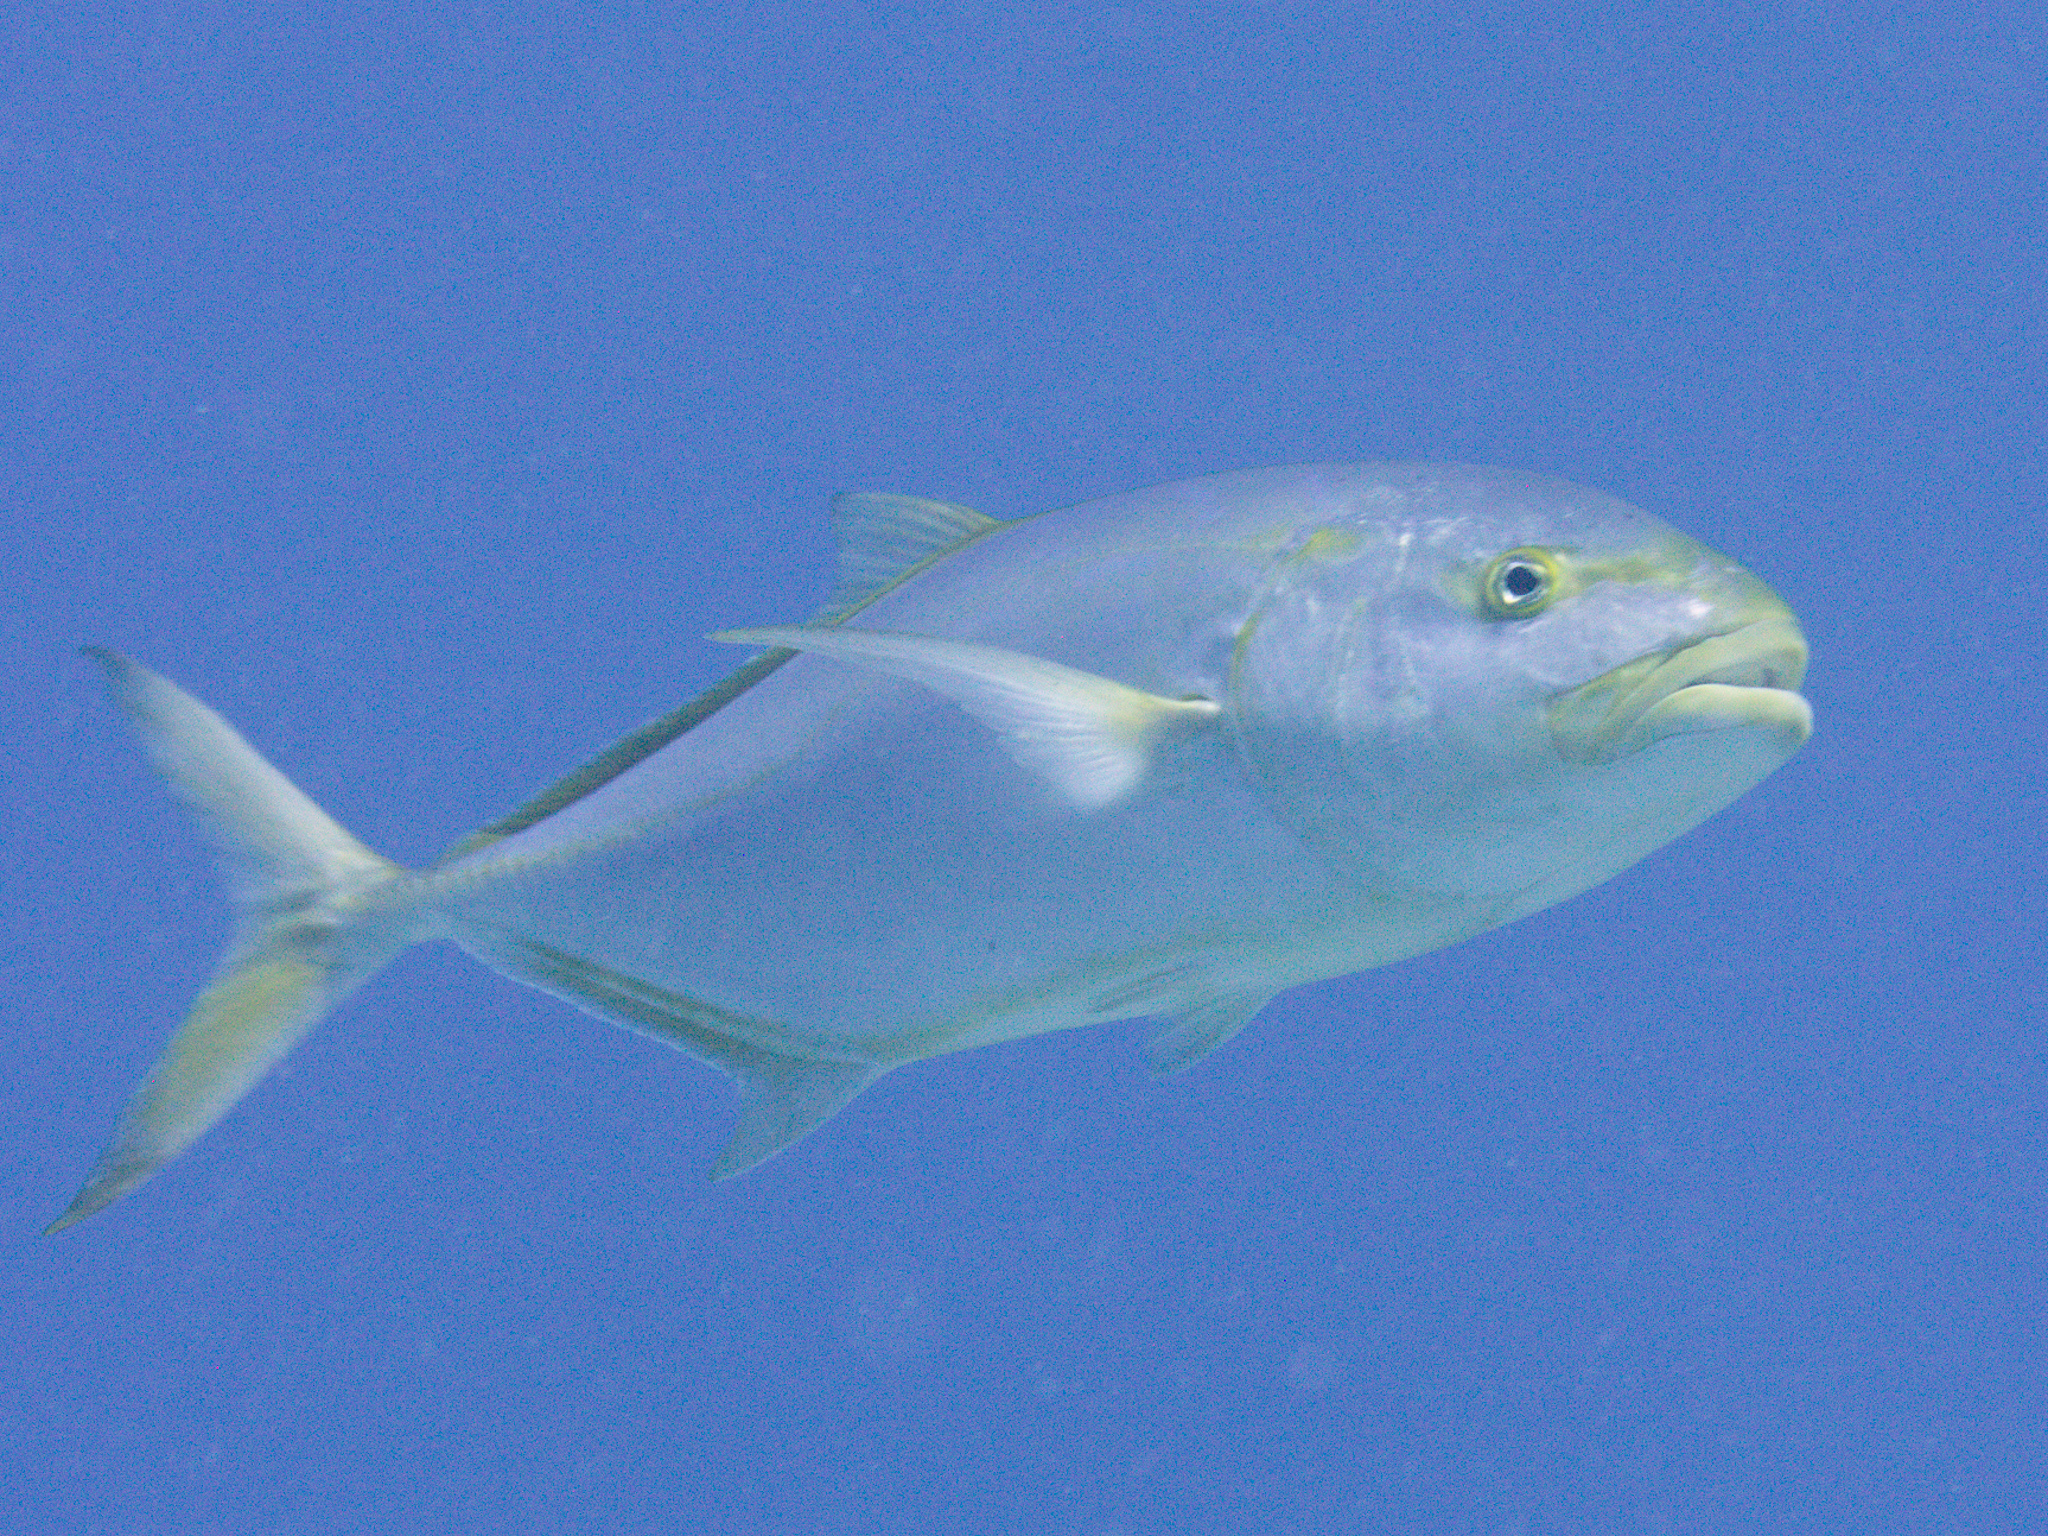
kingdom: Animalia
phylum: Chordata
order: Perciformes
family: Carangidae
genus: Carangoides
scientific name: Carangoides bartholomaei
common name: Yellow jack
